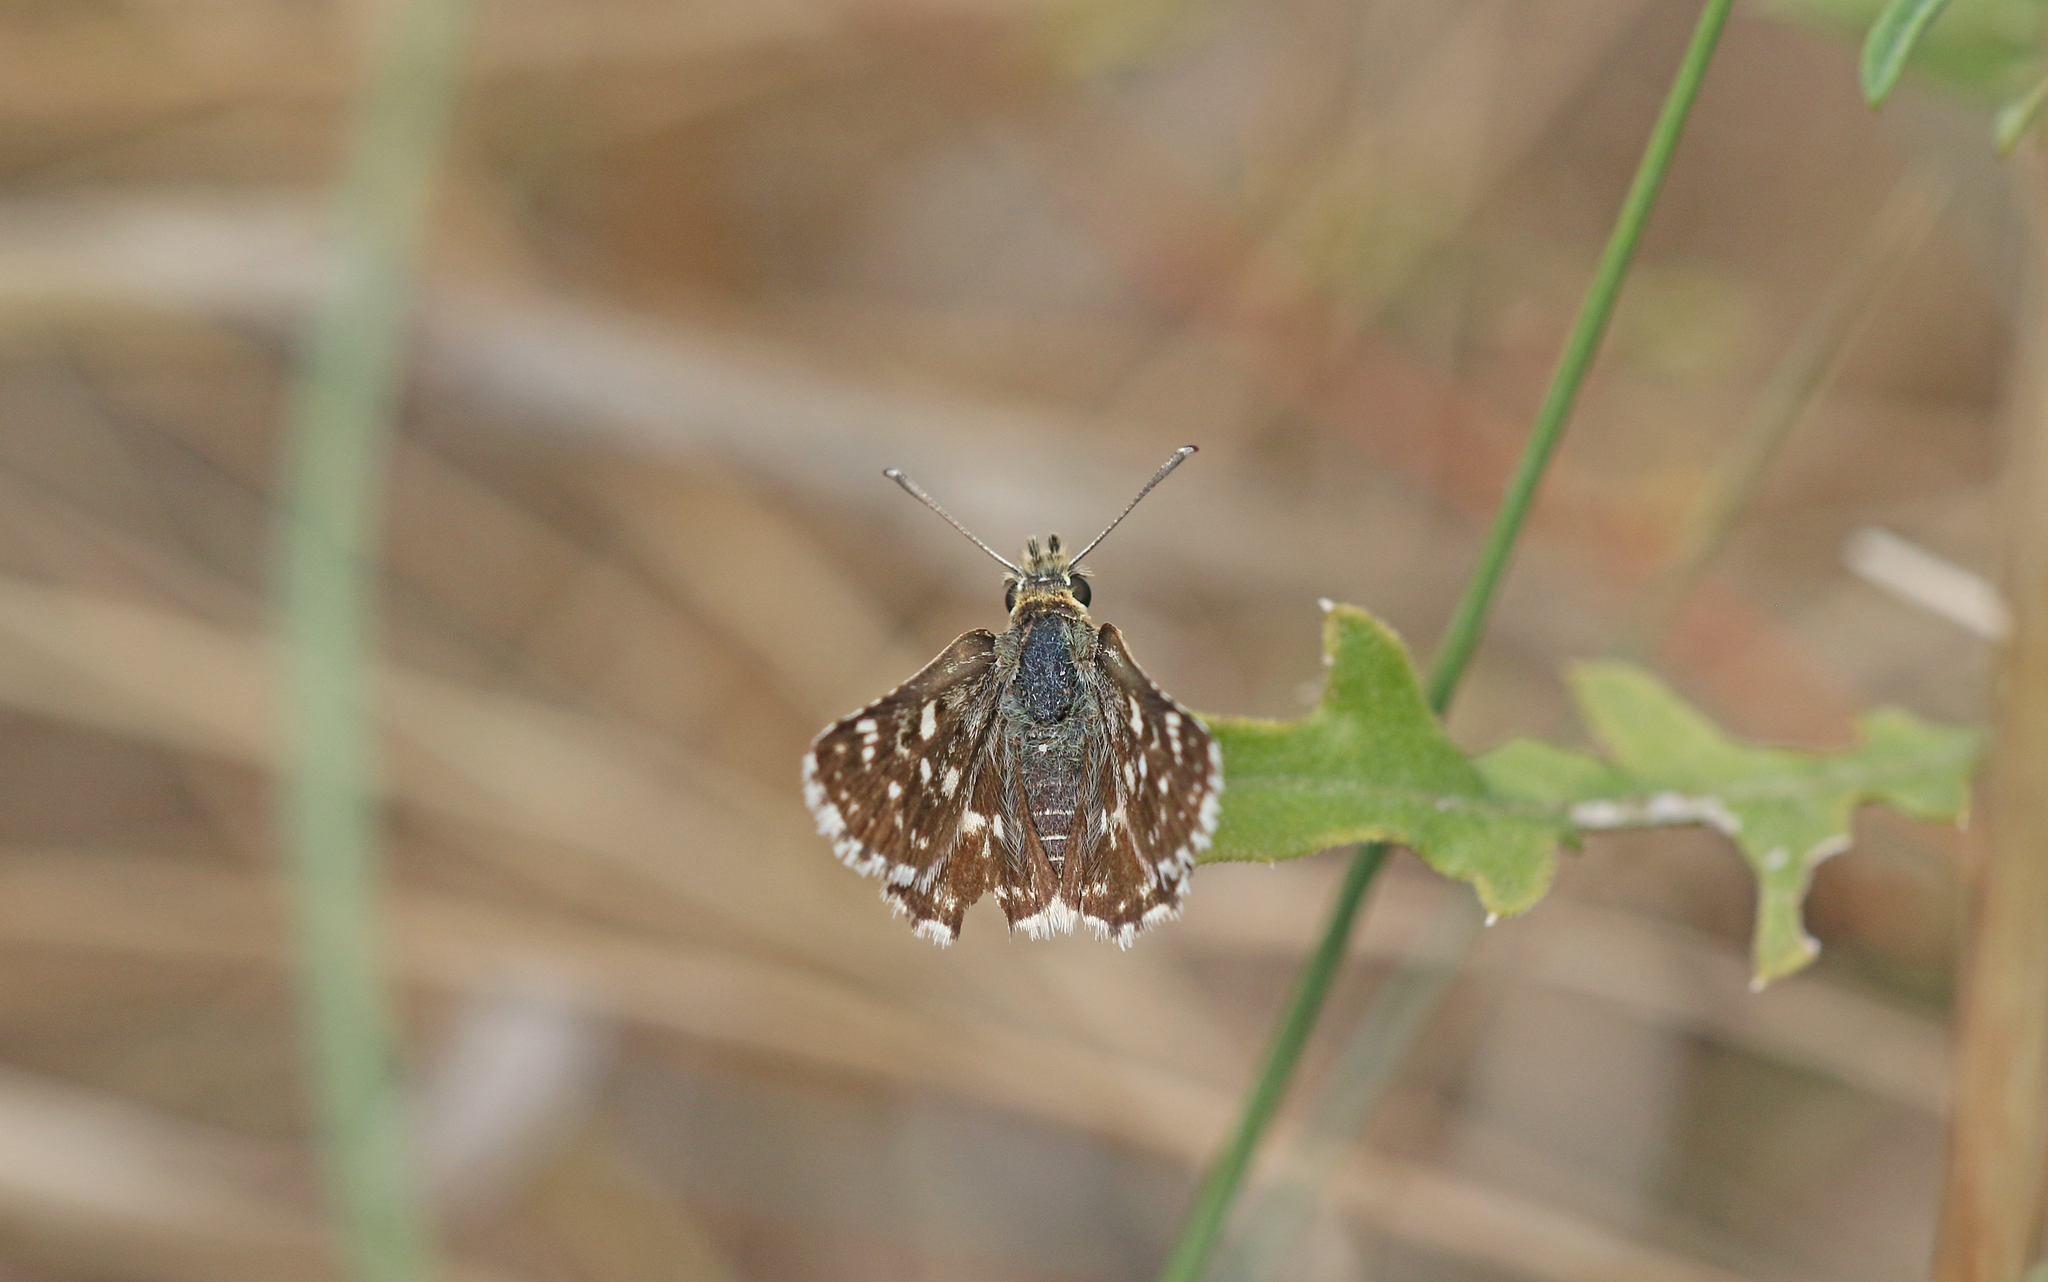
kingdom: Animalia
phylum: Arthropoda
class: Insecta
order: Lepidoptera
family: Hesperiidae
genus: Spialia
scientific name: Spialia sertorius
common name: Red underwing skipper
